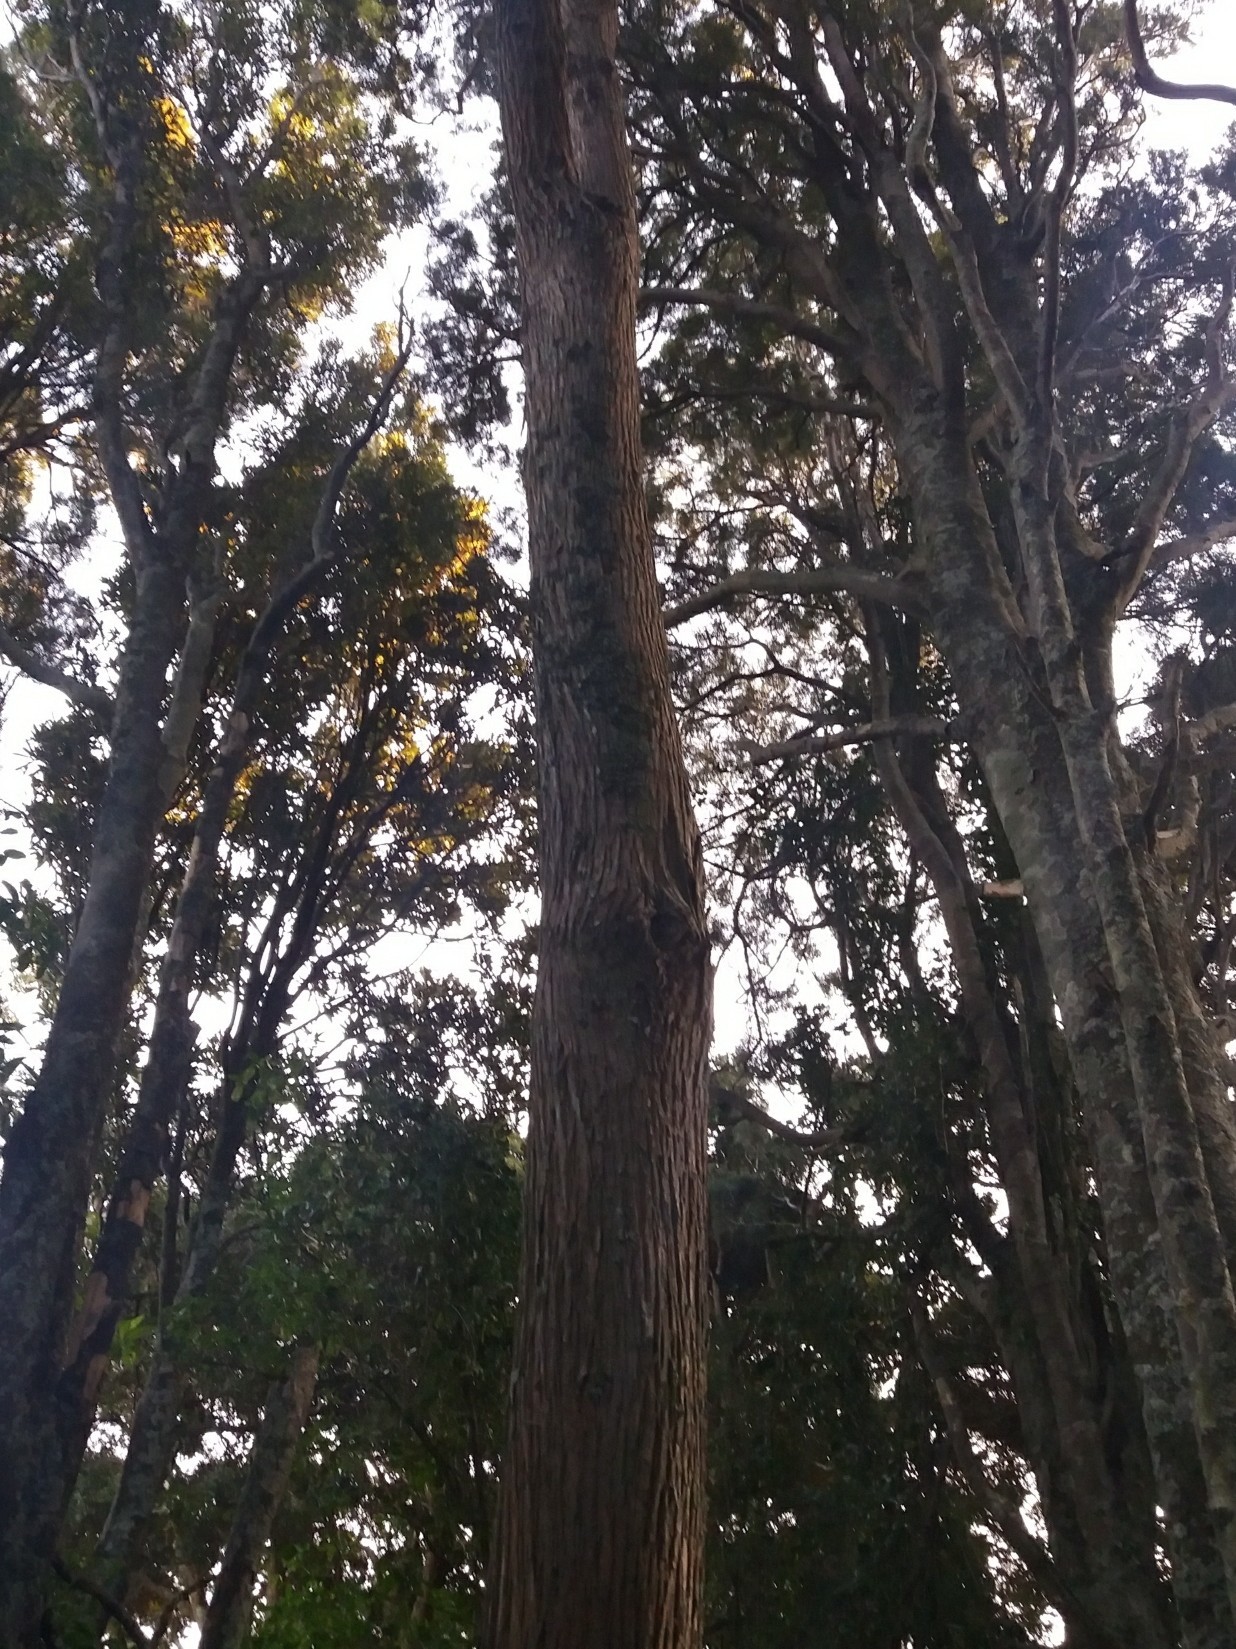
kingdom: Plantae
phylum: Tracheophyta
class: Pinopsida
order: Pinales
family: Podocarpaceae
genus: Podocarpus
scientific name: Podocarpus totara
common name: Totara
